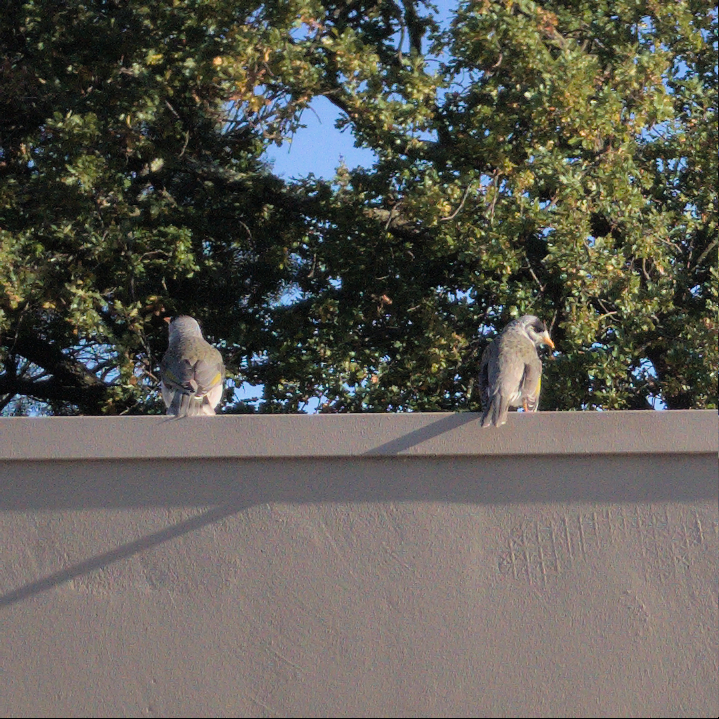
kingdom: Animalia
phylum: Chordata
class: Aves
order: Passeriformes
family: Meliphagidae
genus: Manorina
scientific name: Manorina melanocephala
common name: Noisy miner
